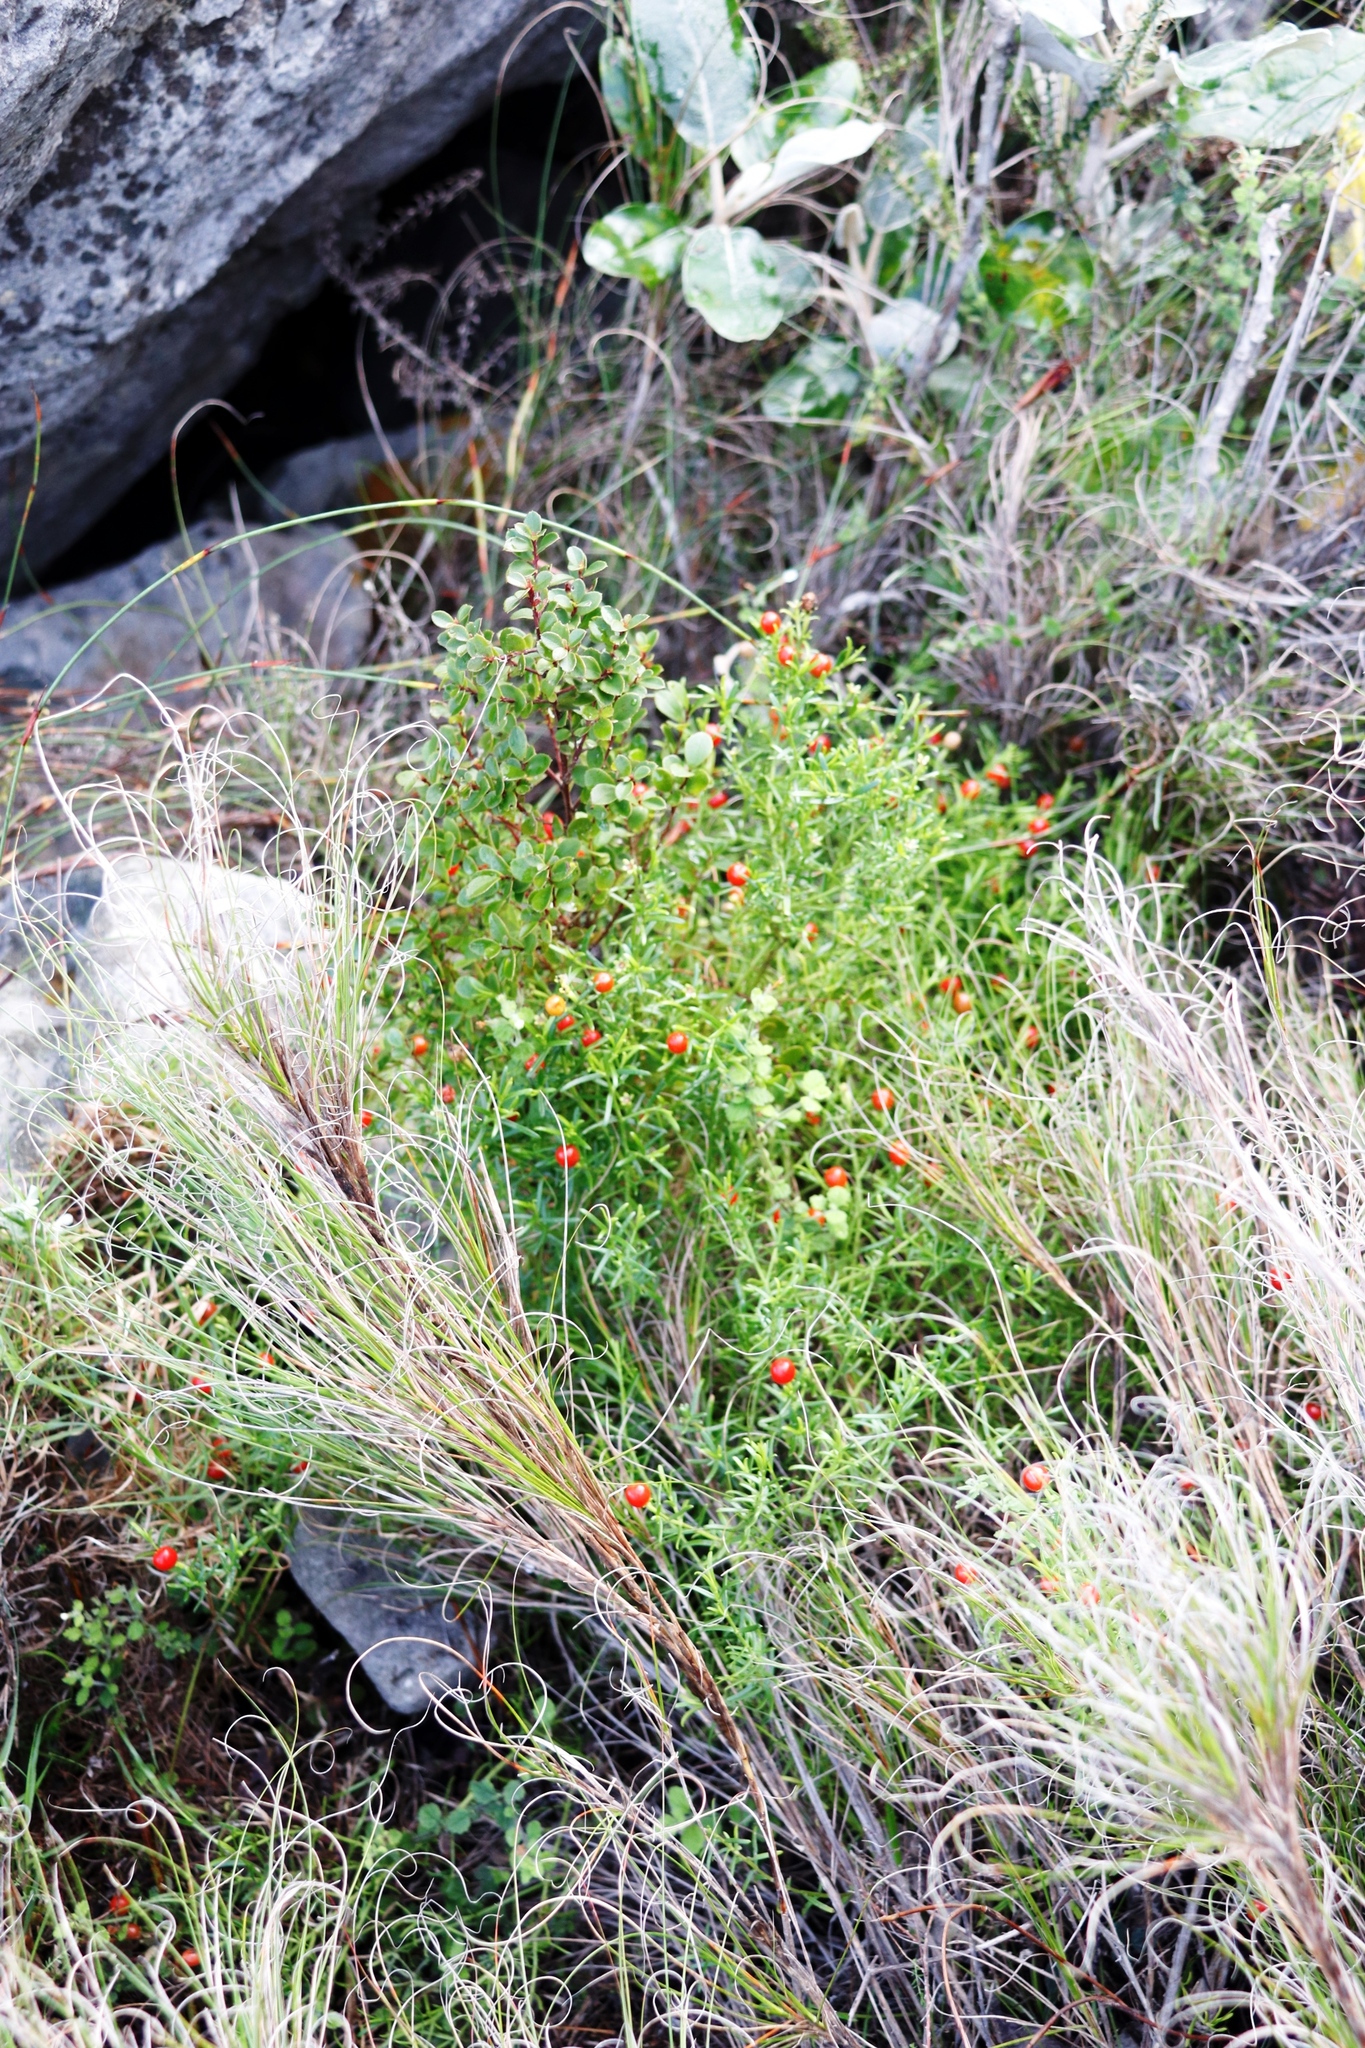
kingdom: Plantae
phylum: Tracheophyta
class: Magnoliopsida
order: Gentianales
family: Gentianaceae
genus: Chironia
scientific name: Chironia baccifera
